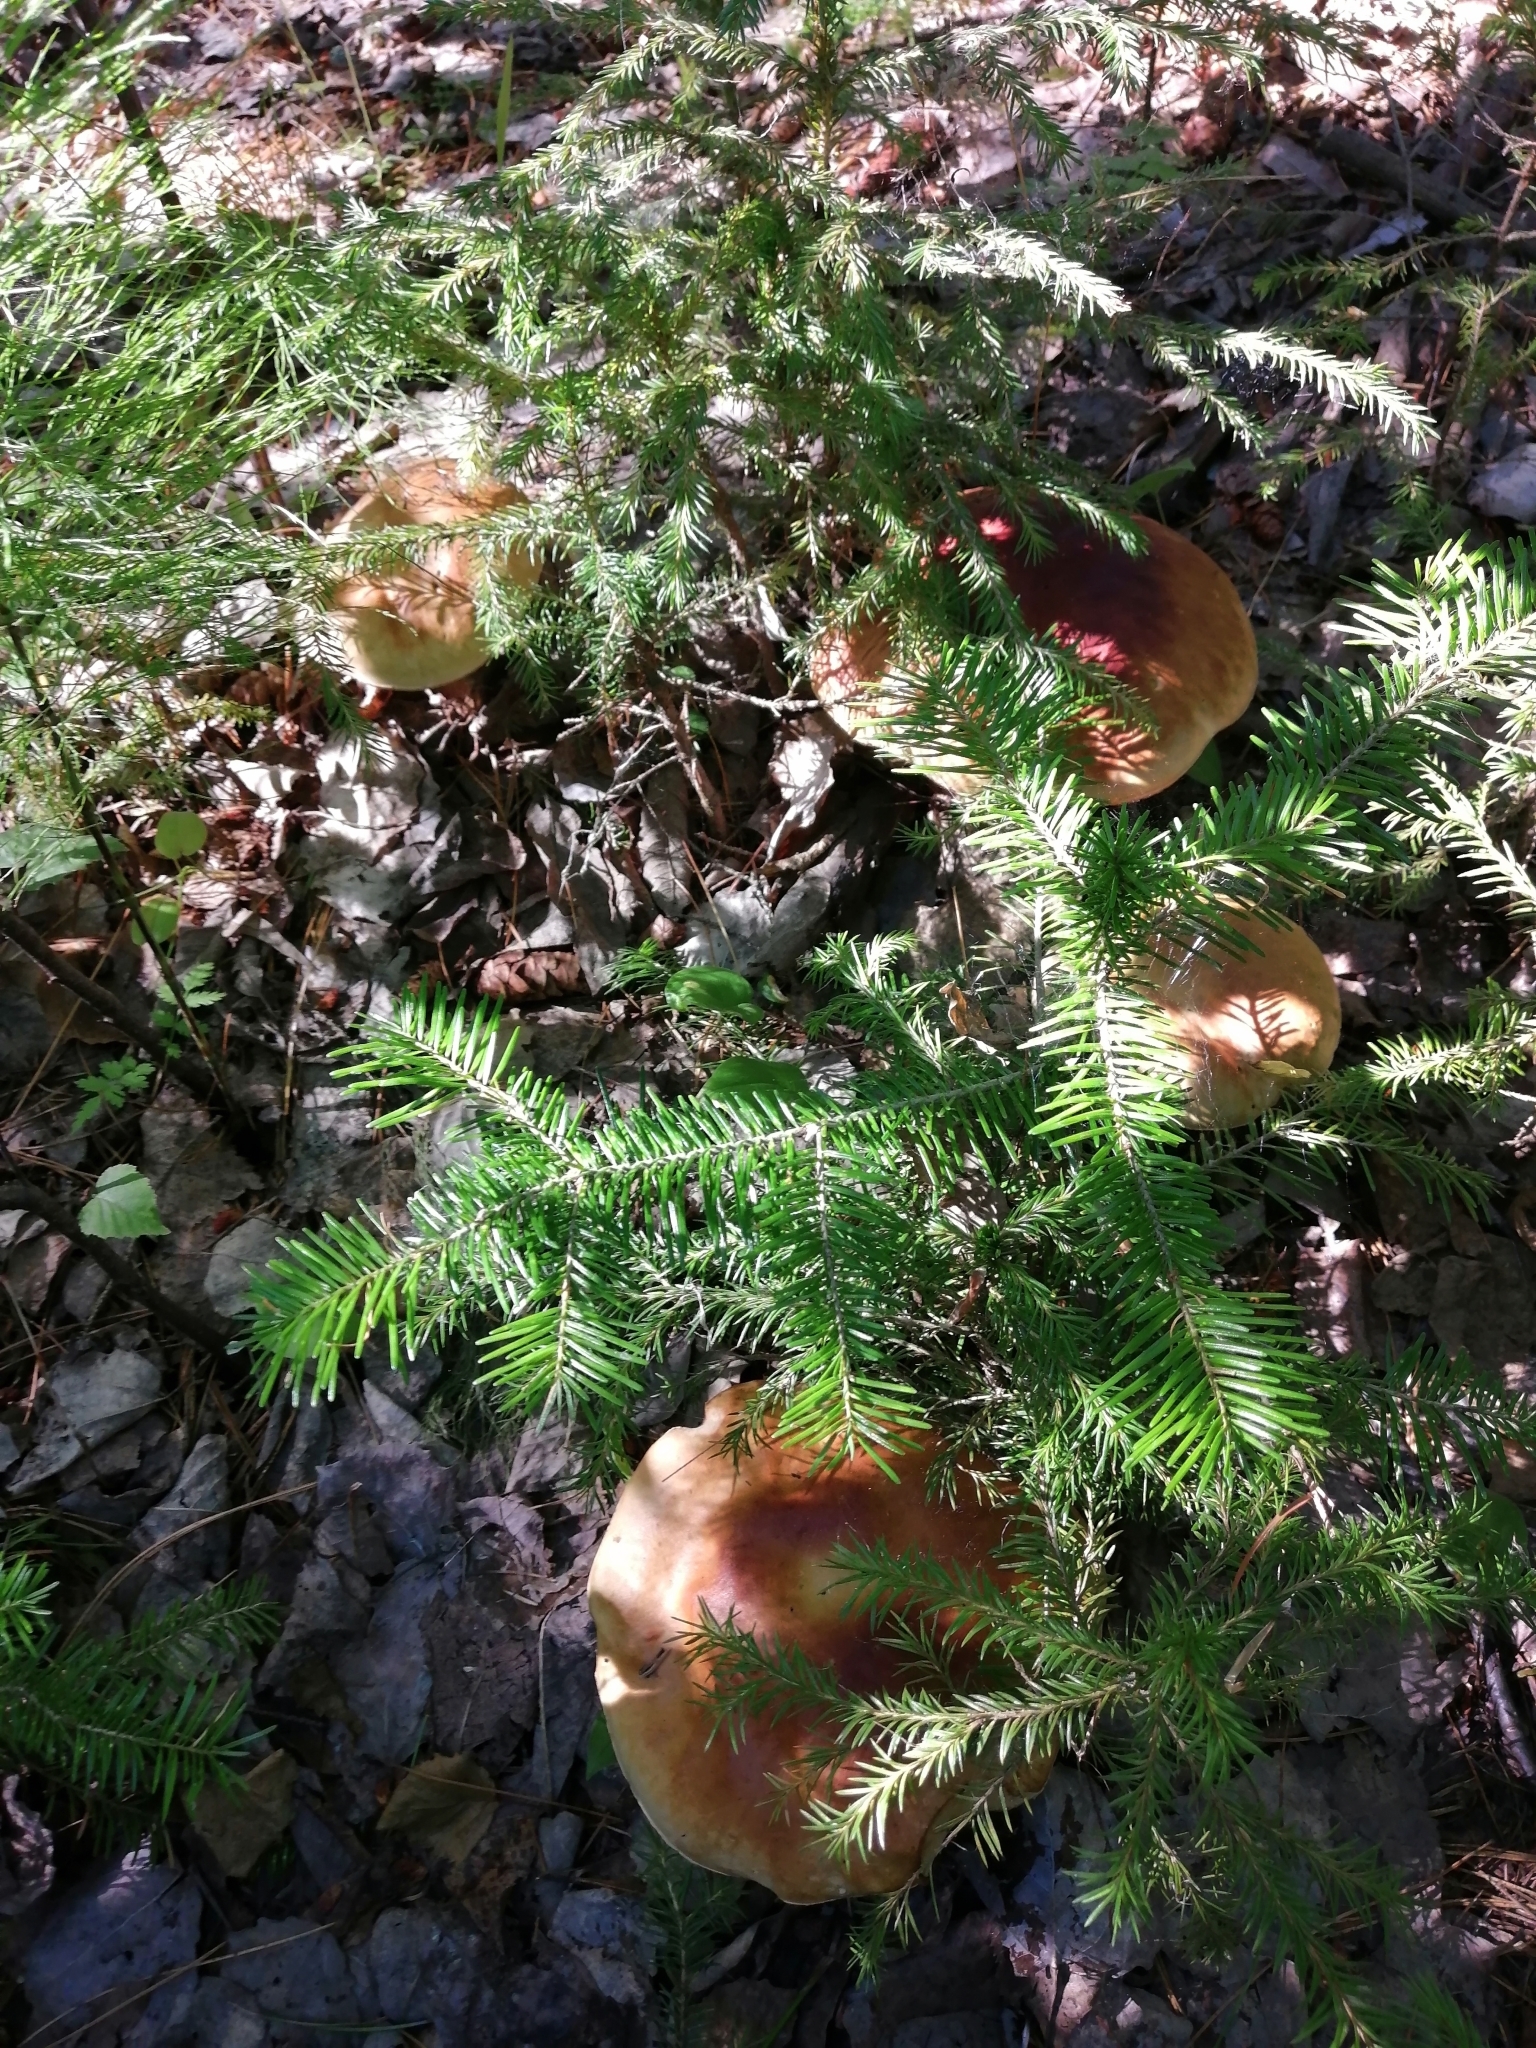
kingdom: Plantae
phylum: Tracheophyta
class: Pinopsida
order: Pinales
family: Pinaceae
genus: Abies
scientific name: Abies sibirica
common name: Siberian fir
